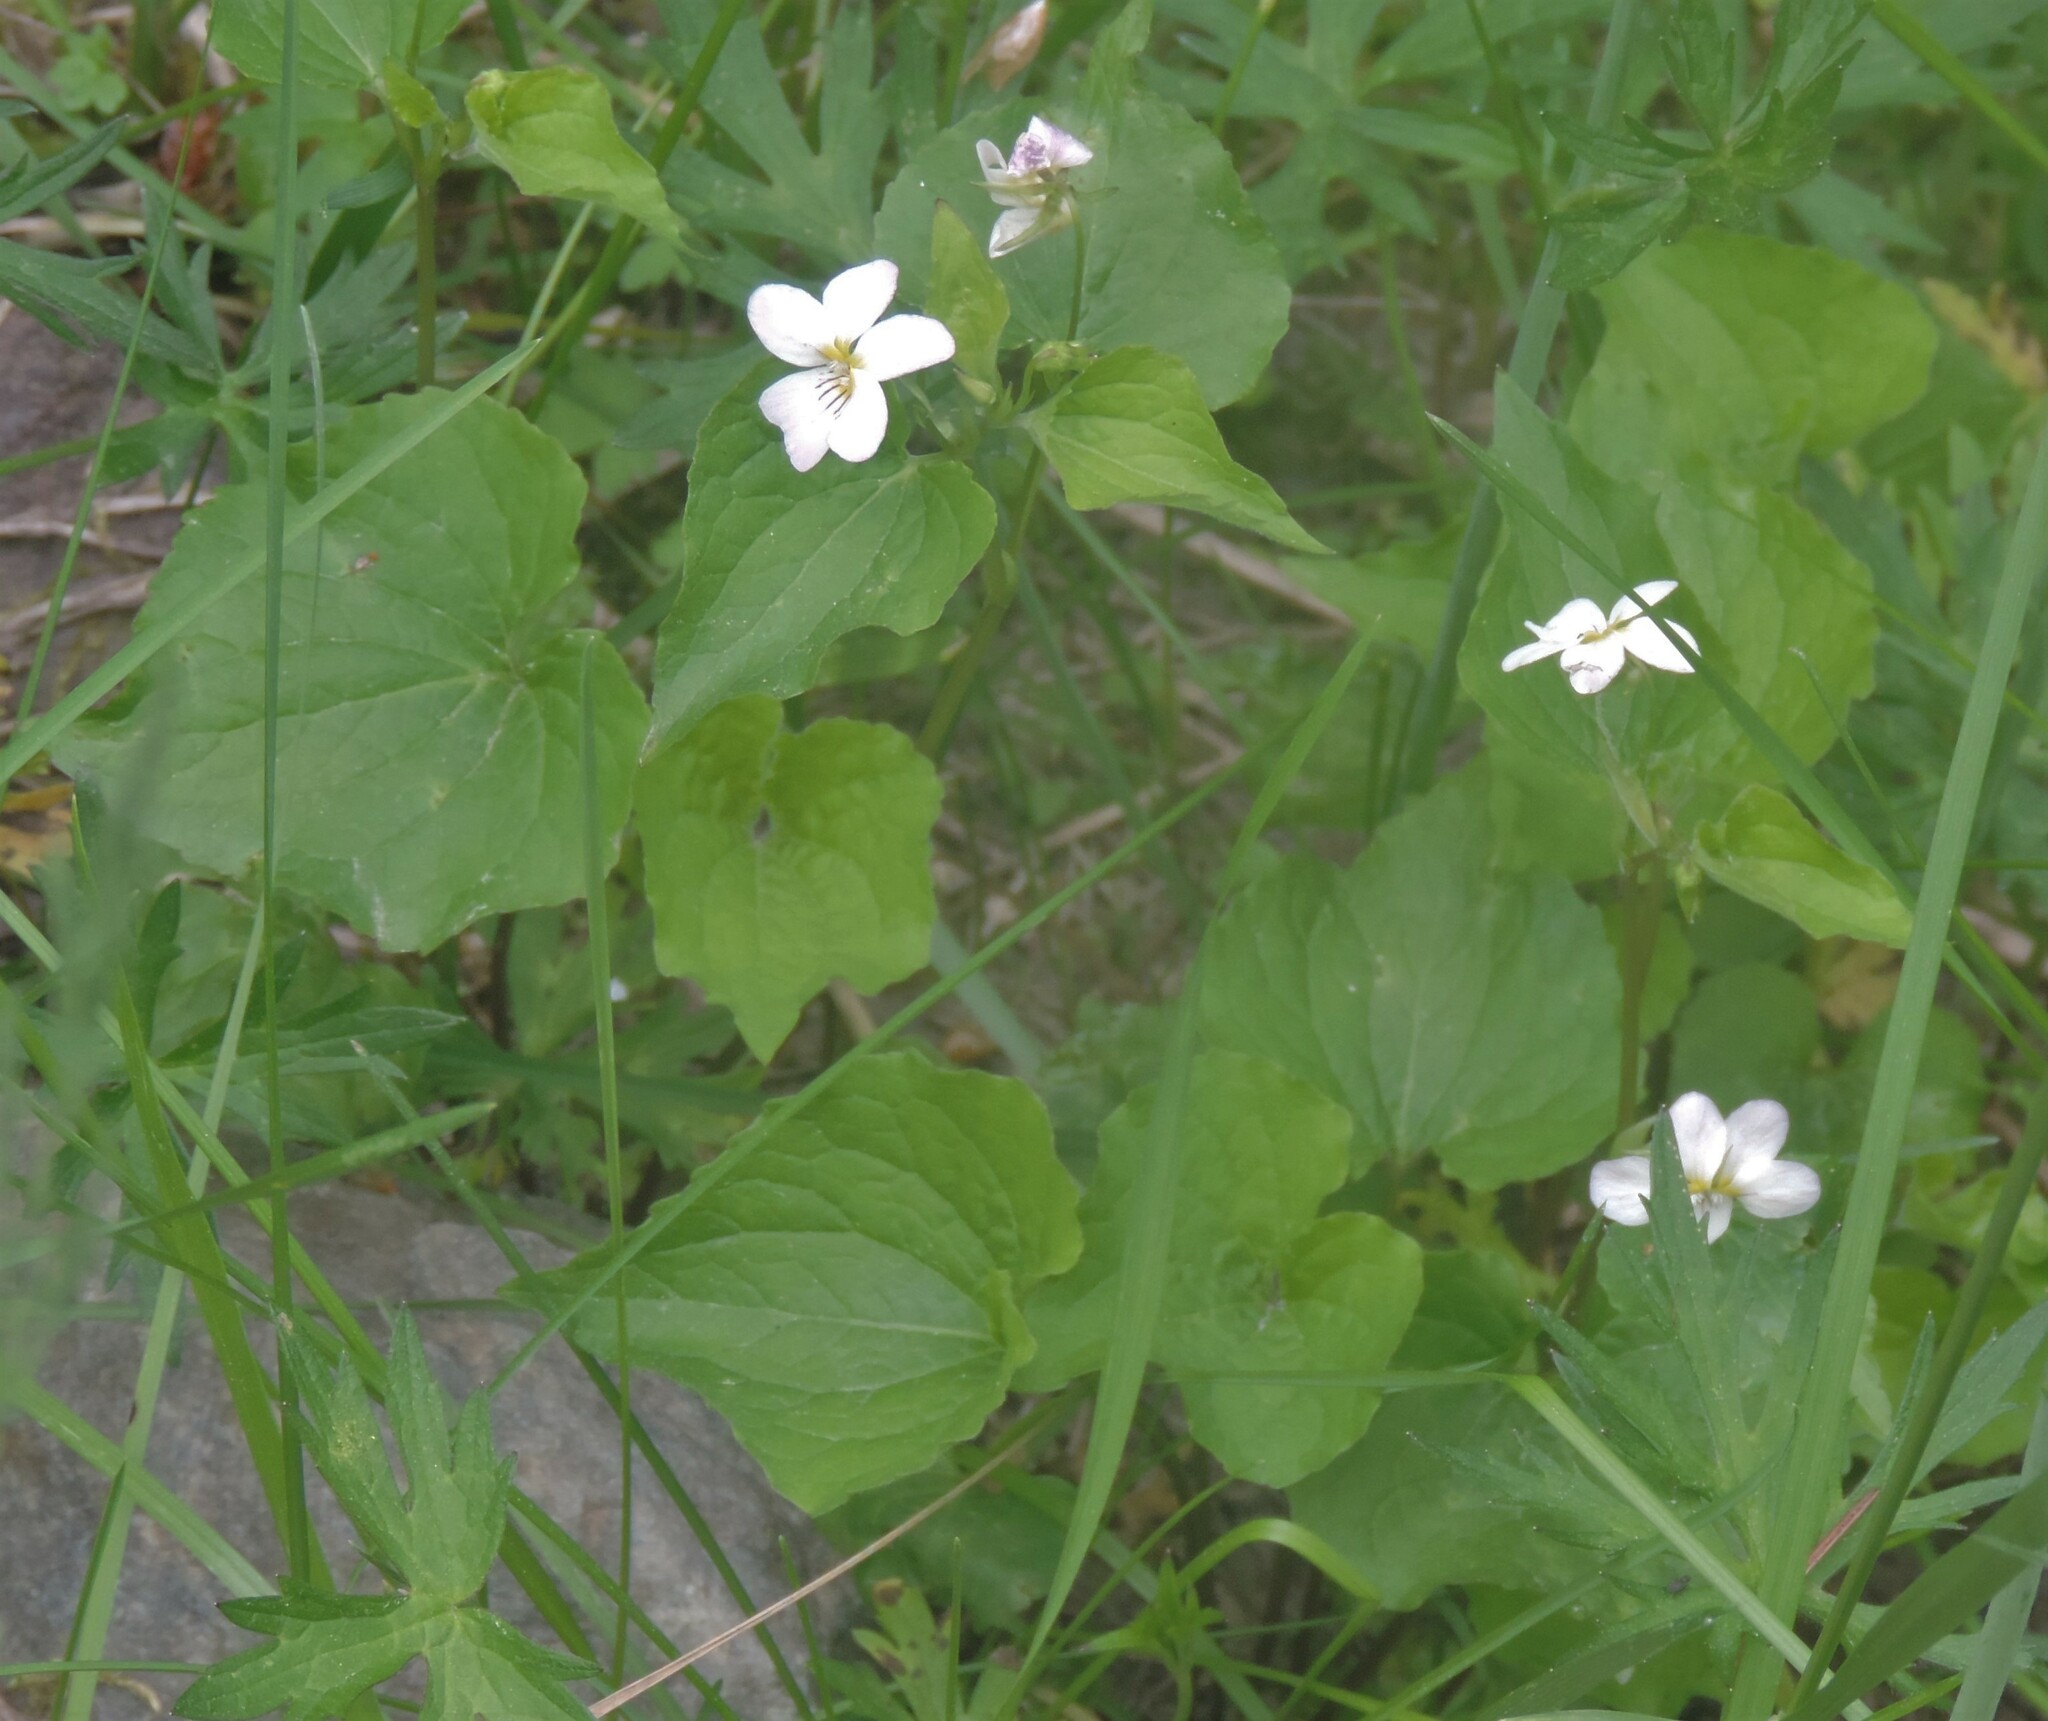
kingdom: Plantae
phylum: Tracheophyta
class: Magnoliopsida
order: Malpighiales
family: Violaceae
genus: Viola
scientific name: Viola canadensis
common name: Canada violet
